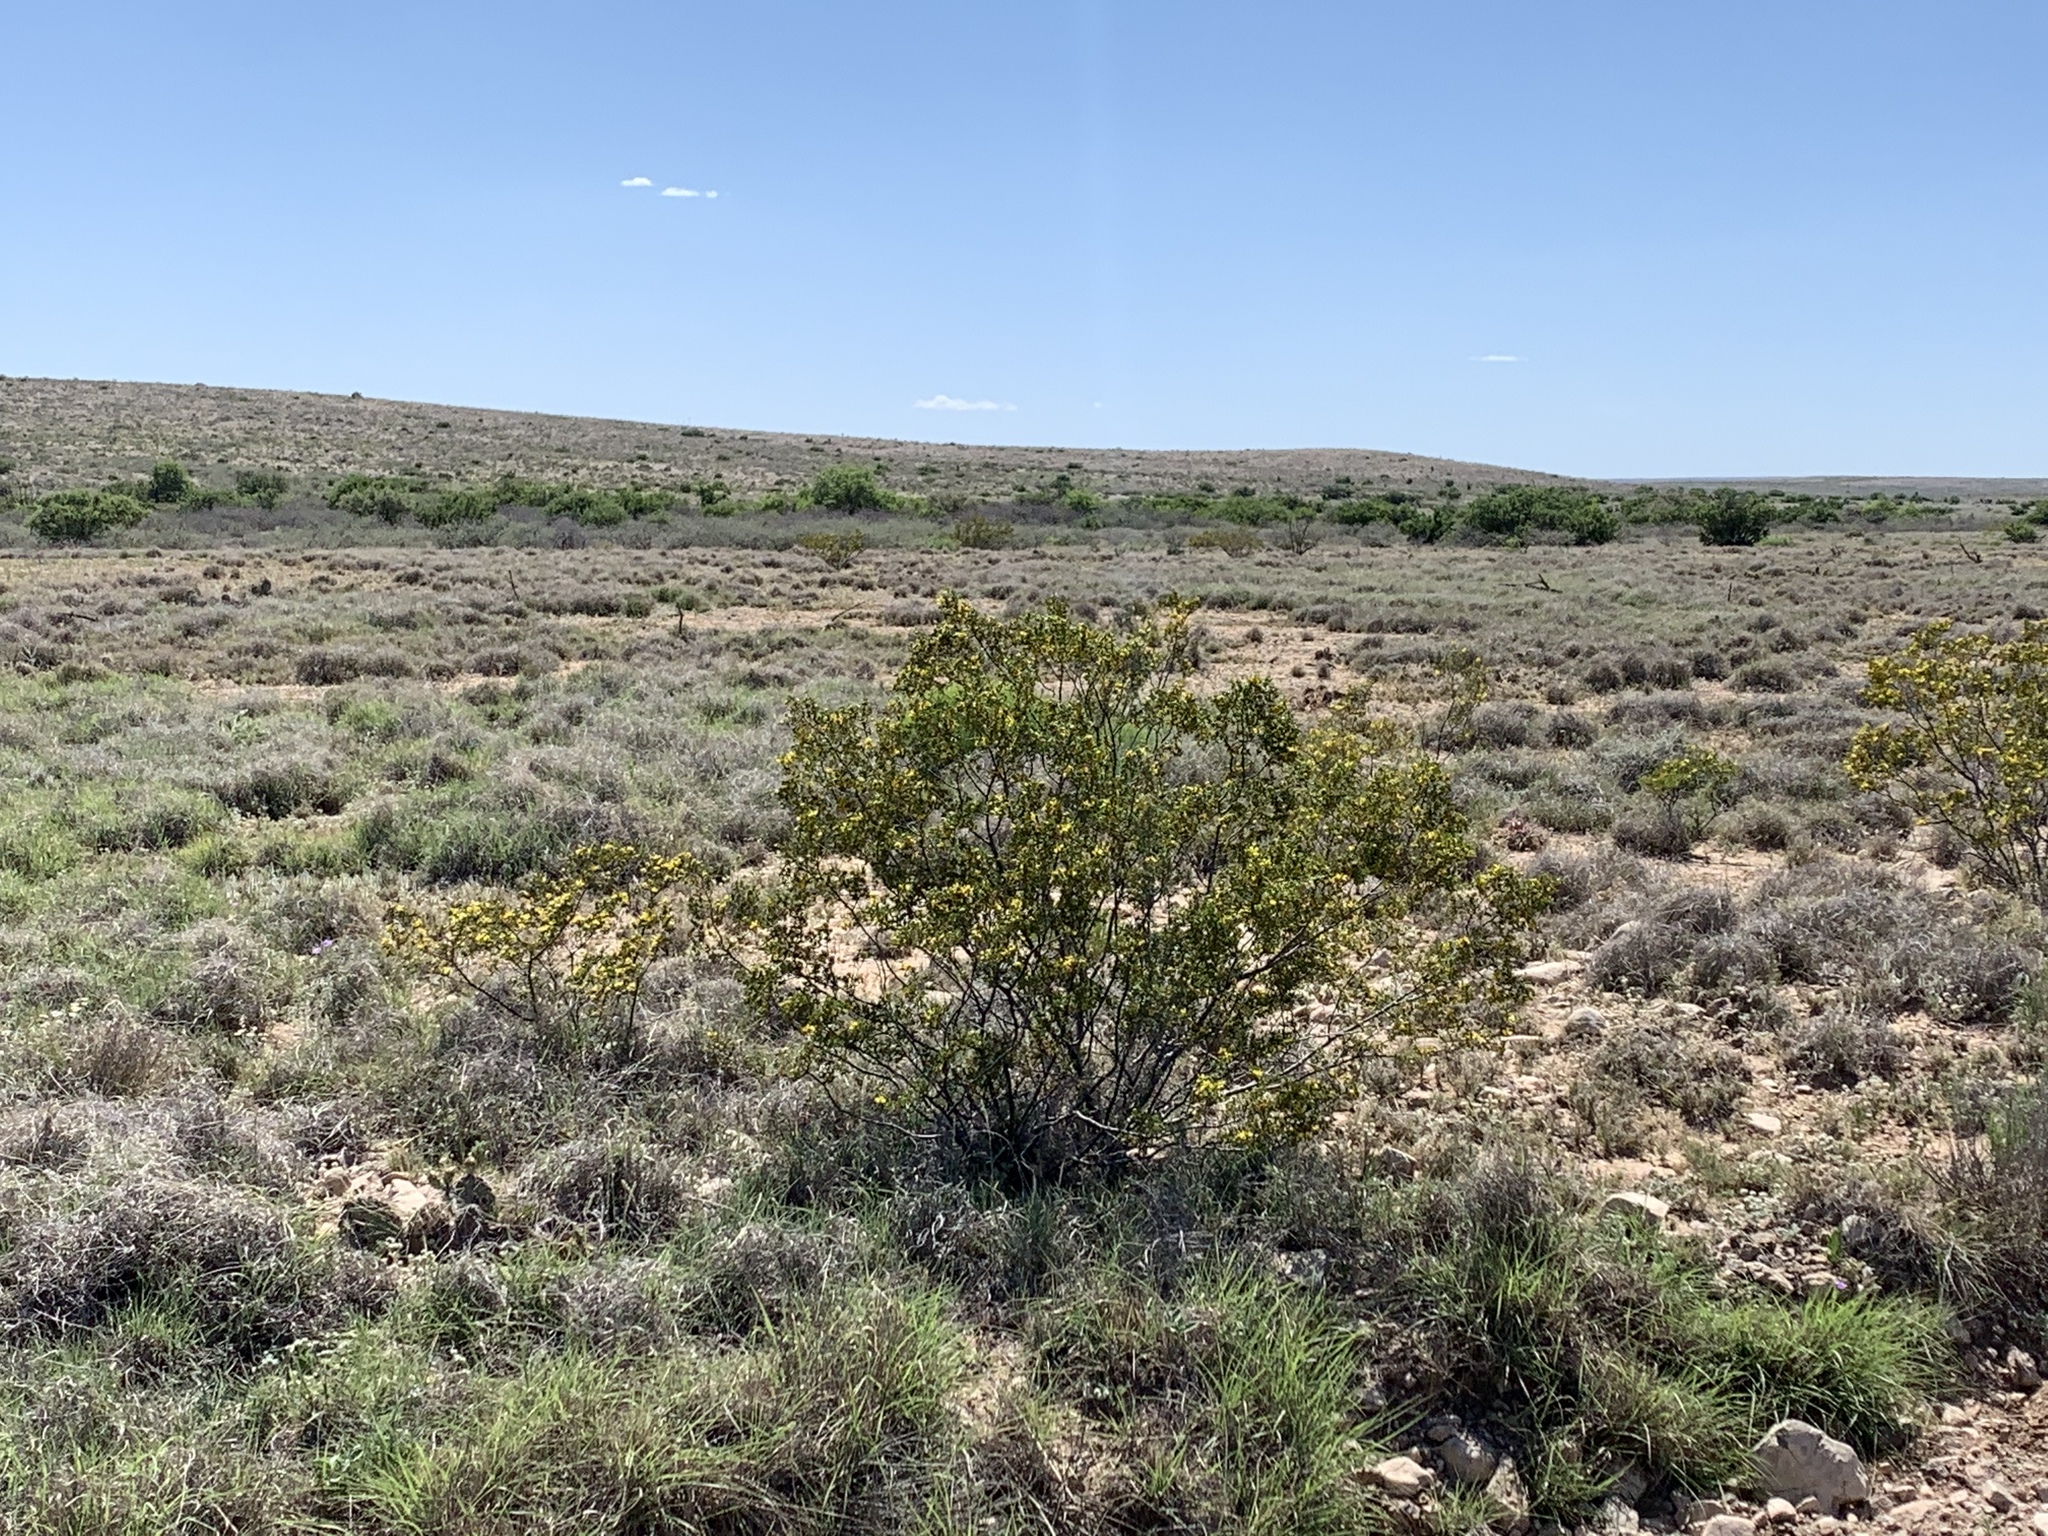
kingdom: Plantae
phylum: Tracheophyta
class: Magnoliopsida
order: Zygophyllales
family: Zygophyllaceae
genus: Larrea
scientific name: Larrea tridentata
